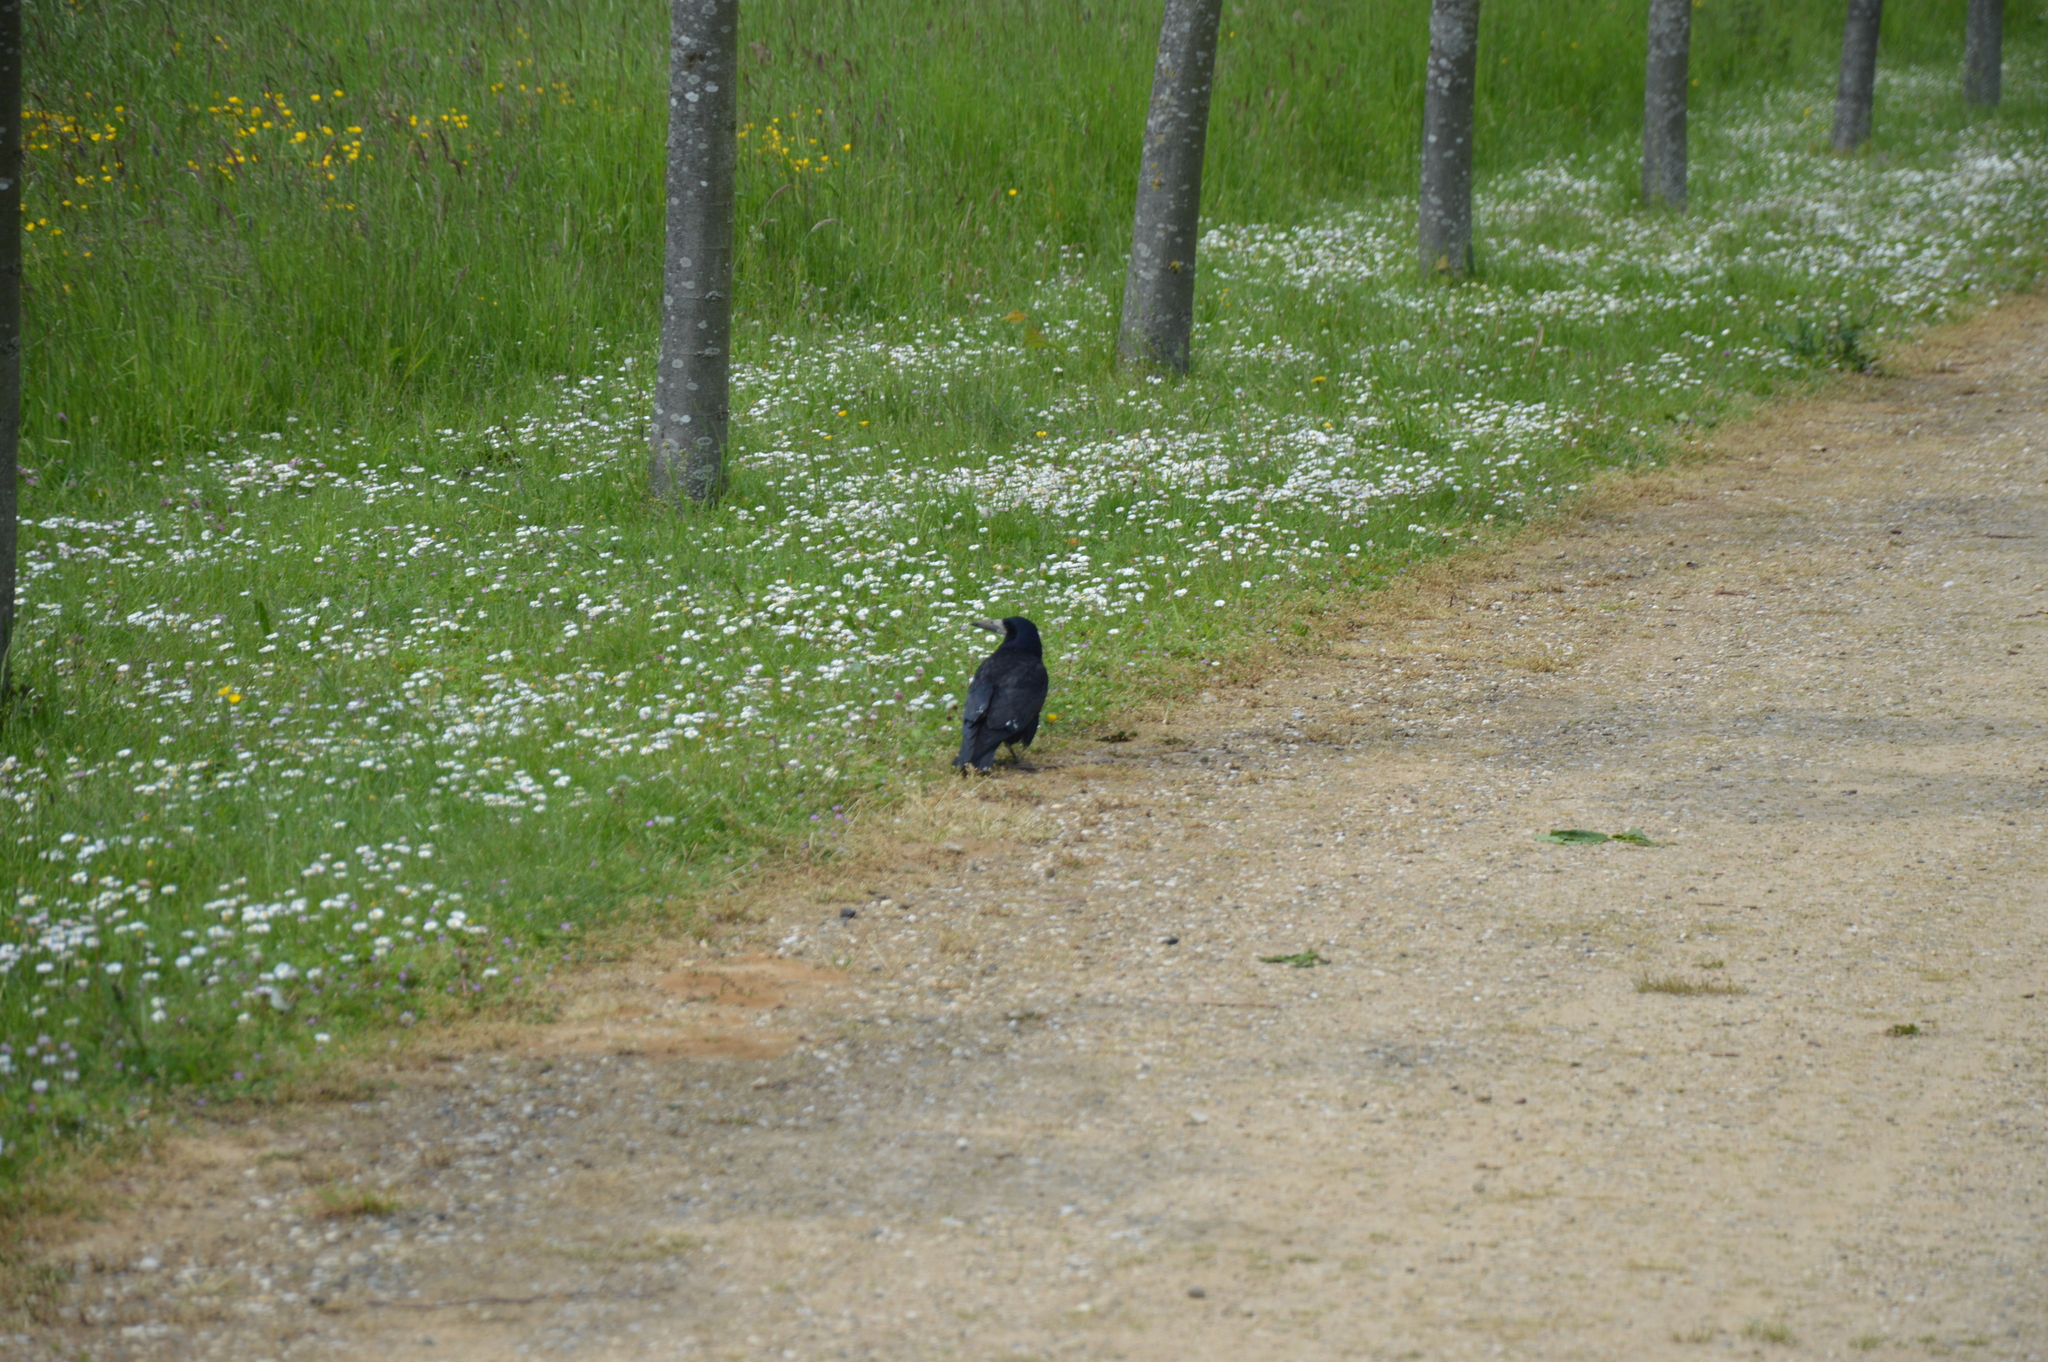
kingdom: Animalia
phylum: Chordata
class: Aves
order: Passeriformes
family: Corvidae
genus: Corvus
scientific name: Corvus frugilegus
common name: Rook
